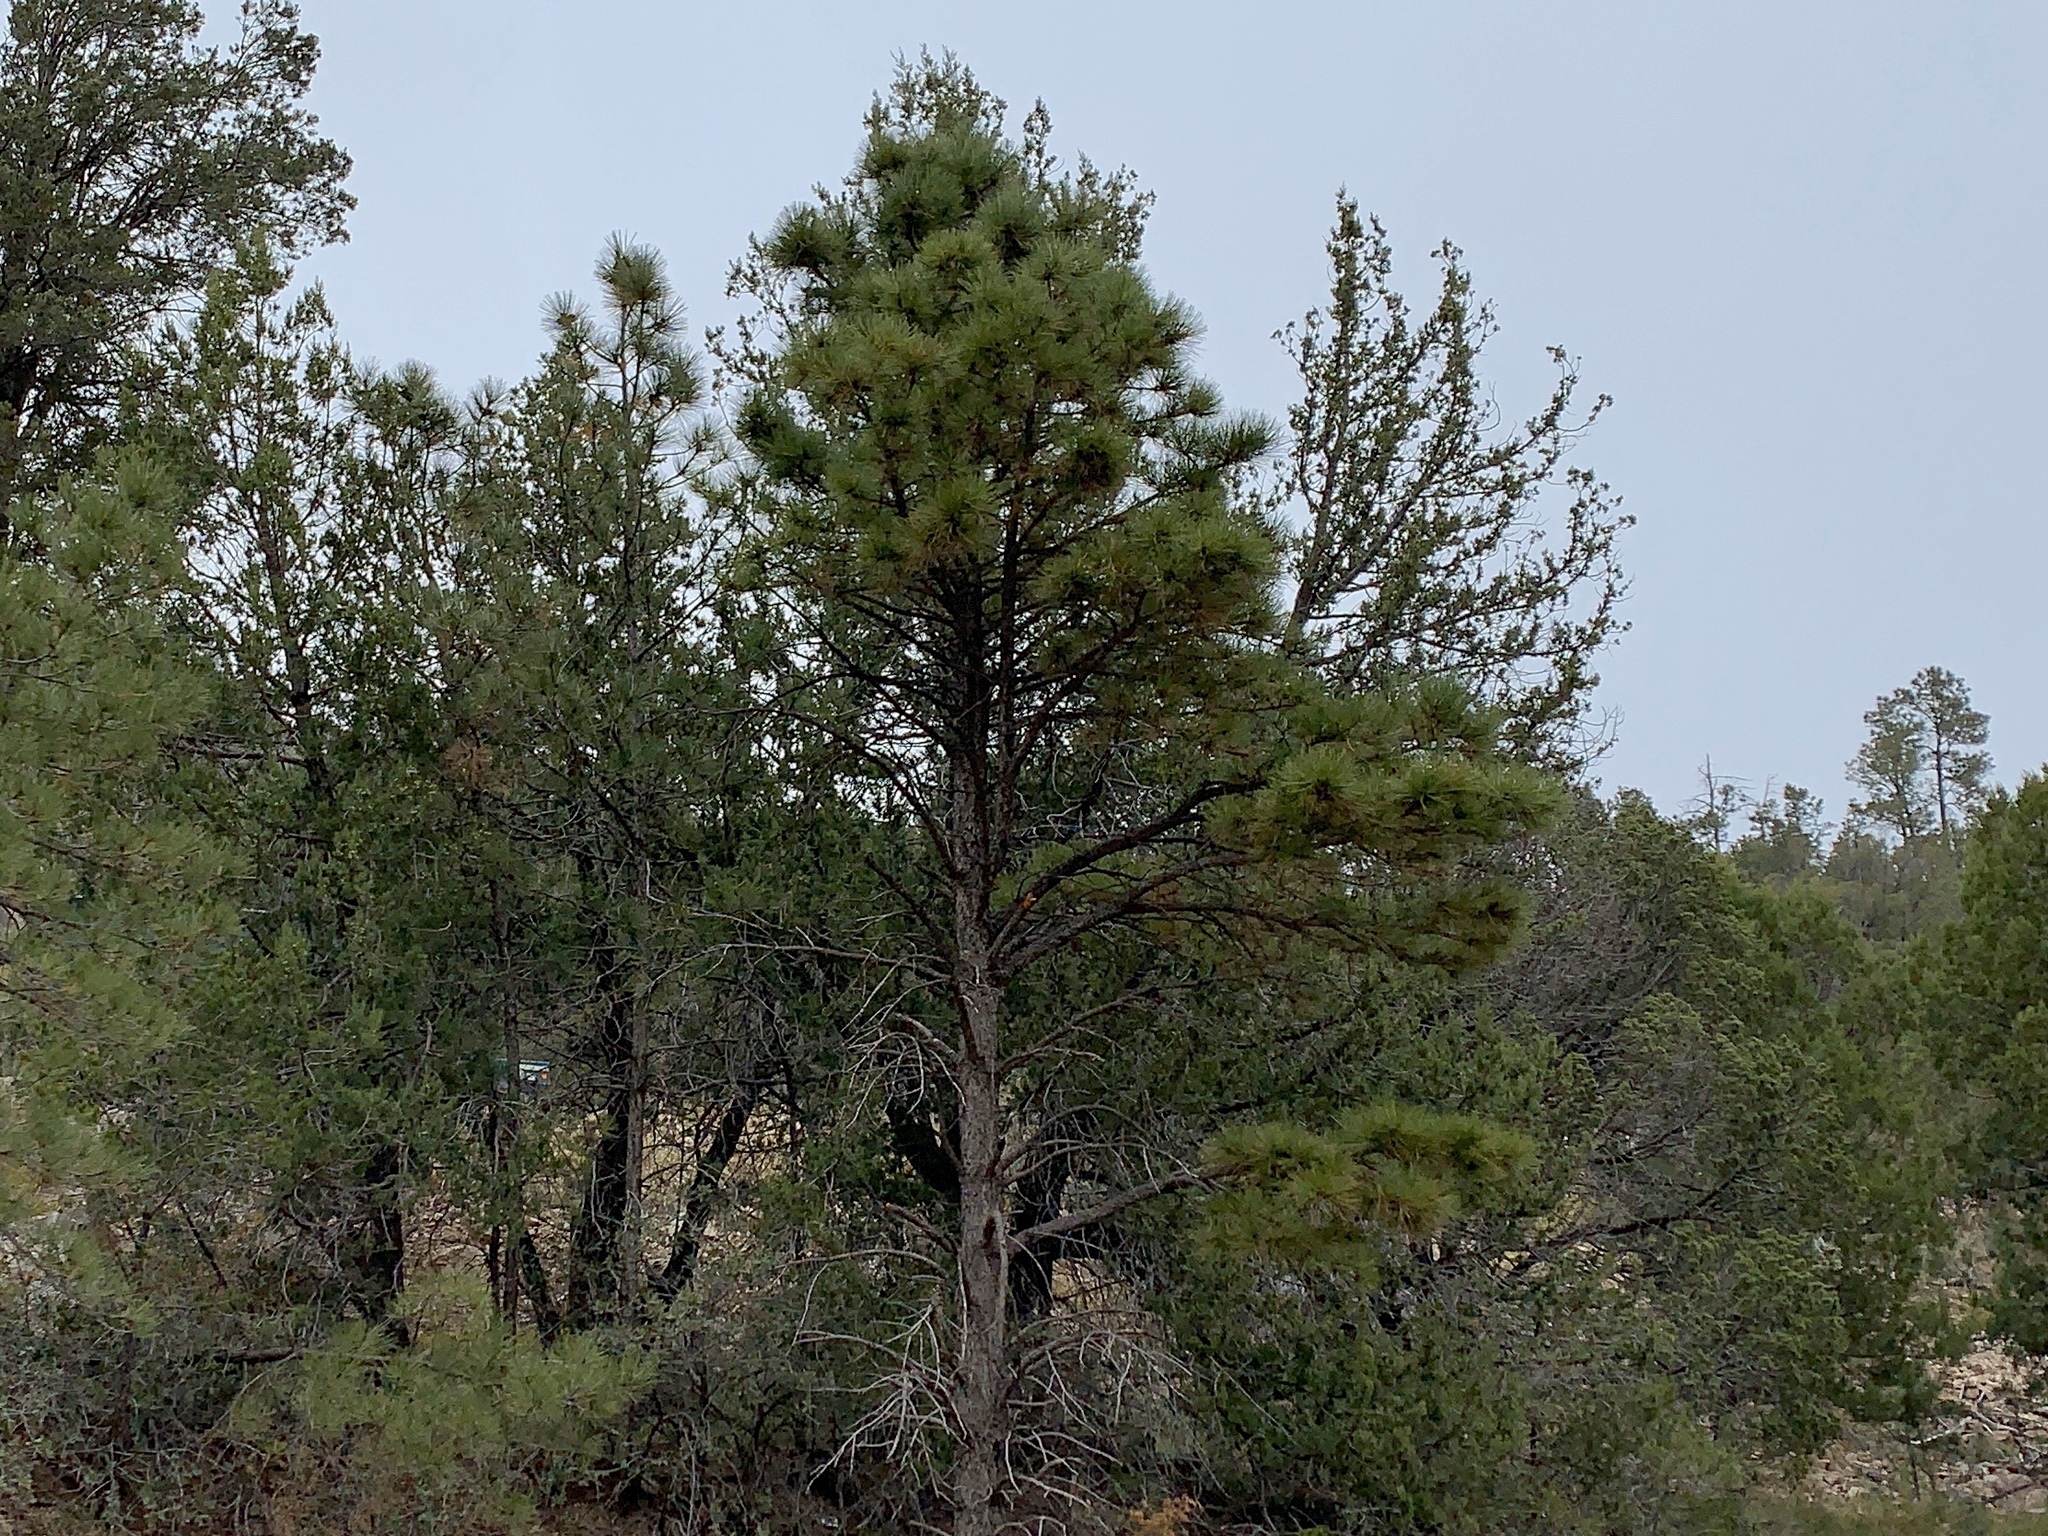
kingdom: Plantae
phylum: Tracheophyta
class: Pinopsida
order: Pinales
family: Pinaceae
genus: Pinus
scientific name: Pinus ponderosa
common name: Western yellow-pine
